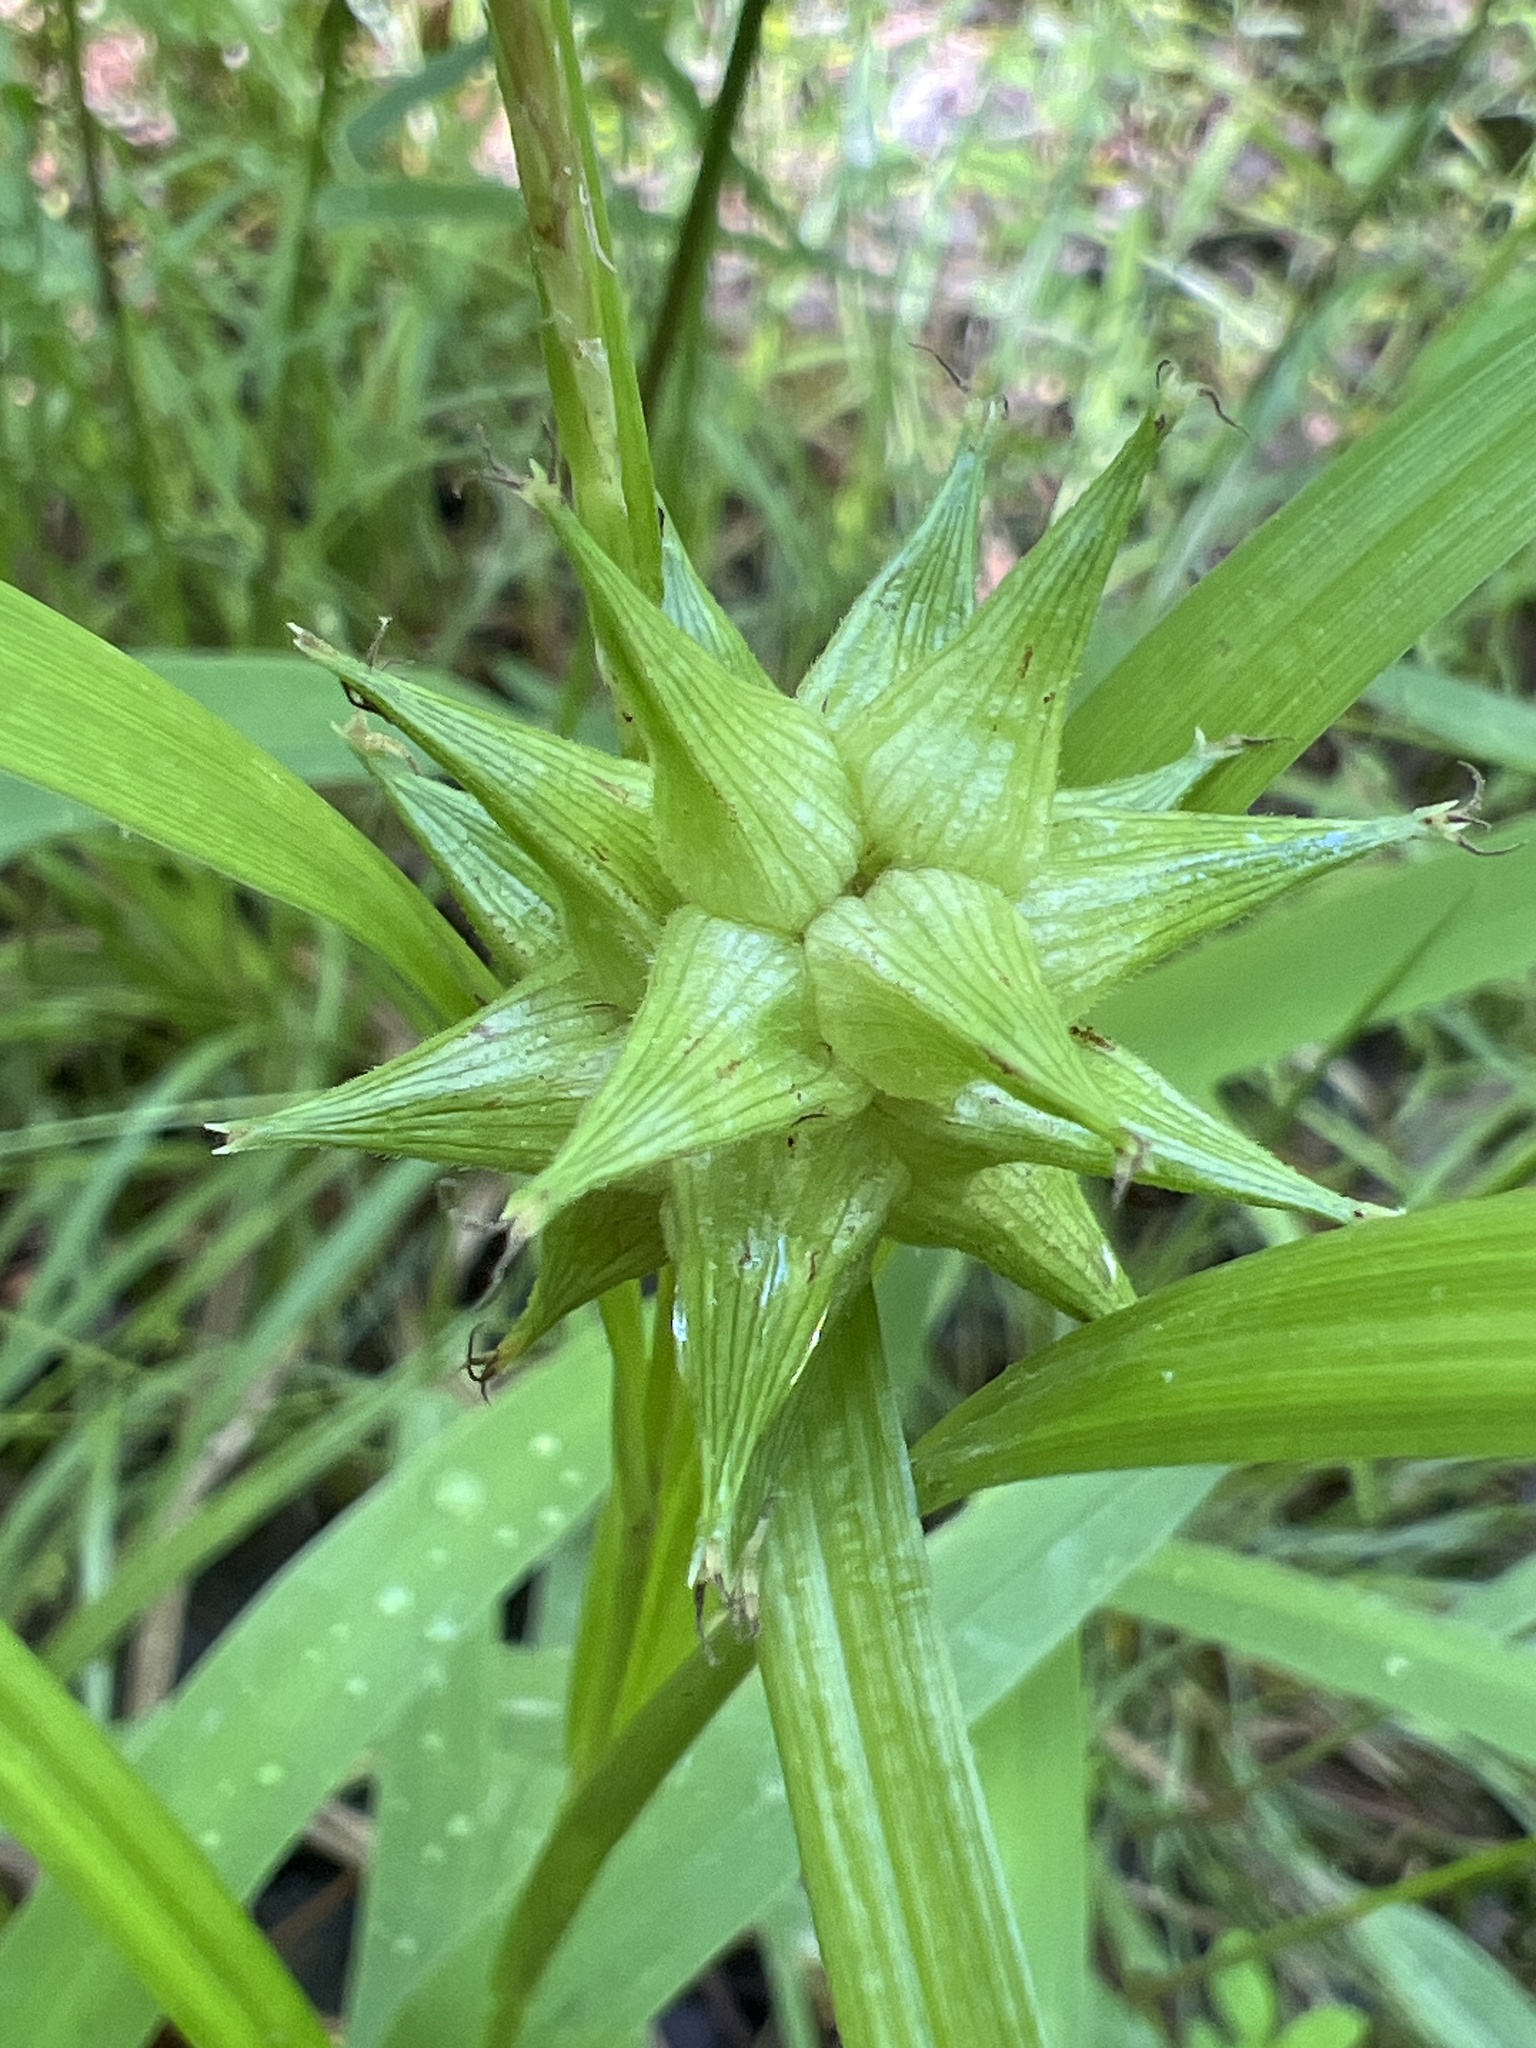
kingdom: Plantae
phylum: Tracheophyta
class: Liliopsida
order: Poales
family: Cyperaceae
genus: Carex
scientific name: Carex grayi
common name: Asa gray's sedge
